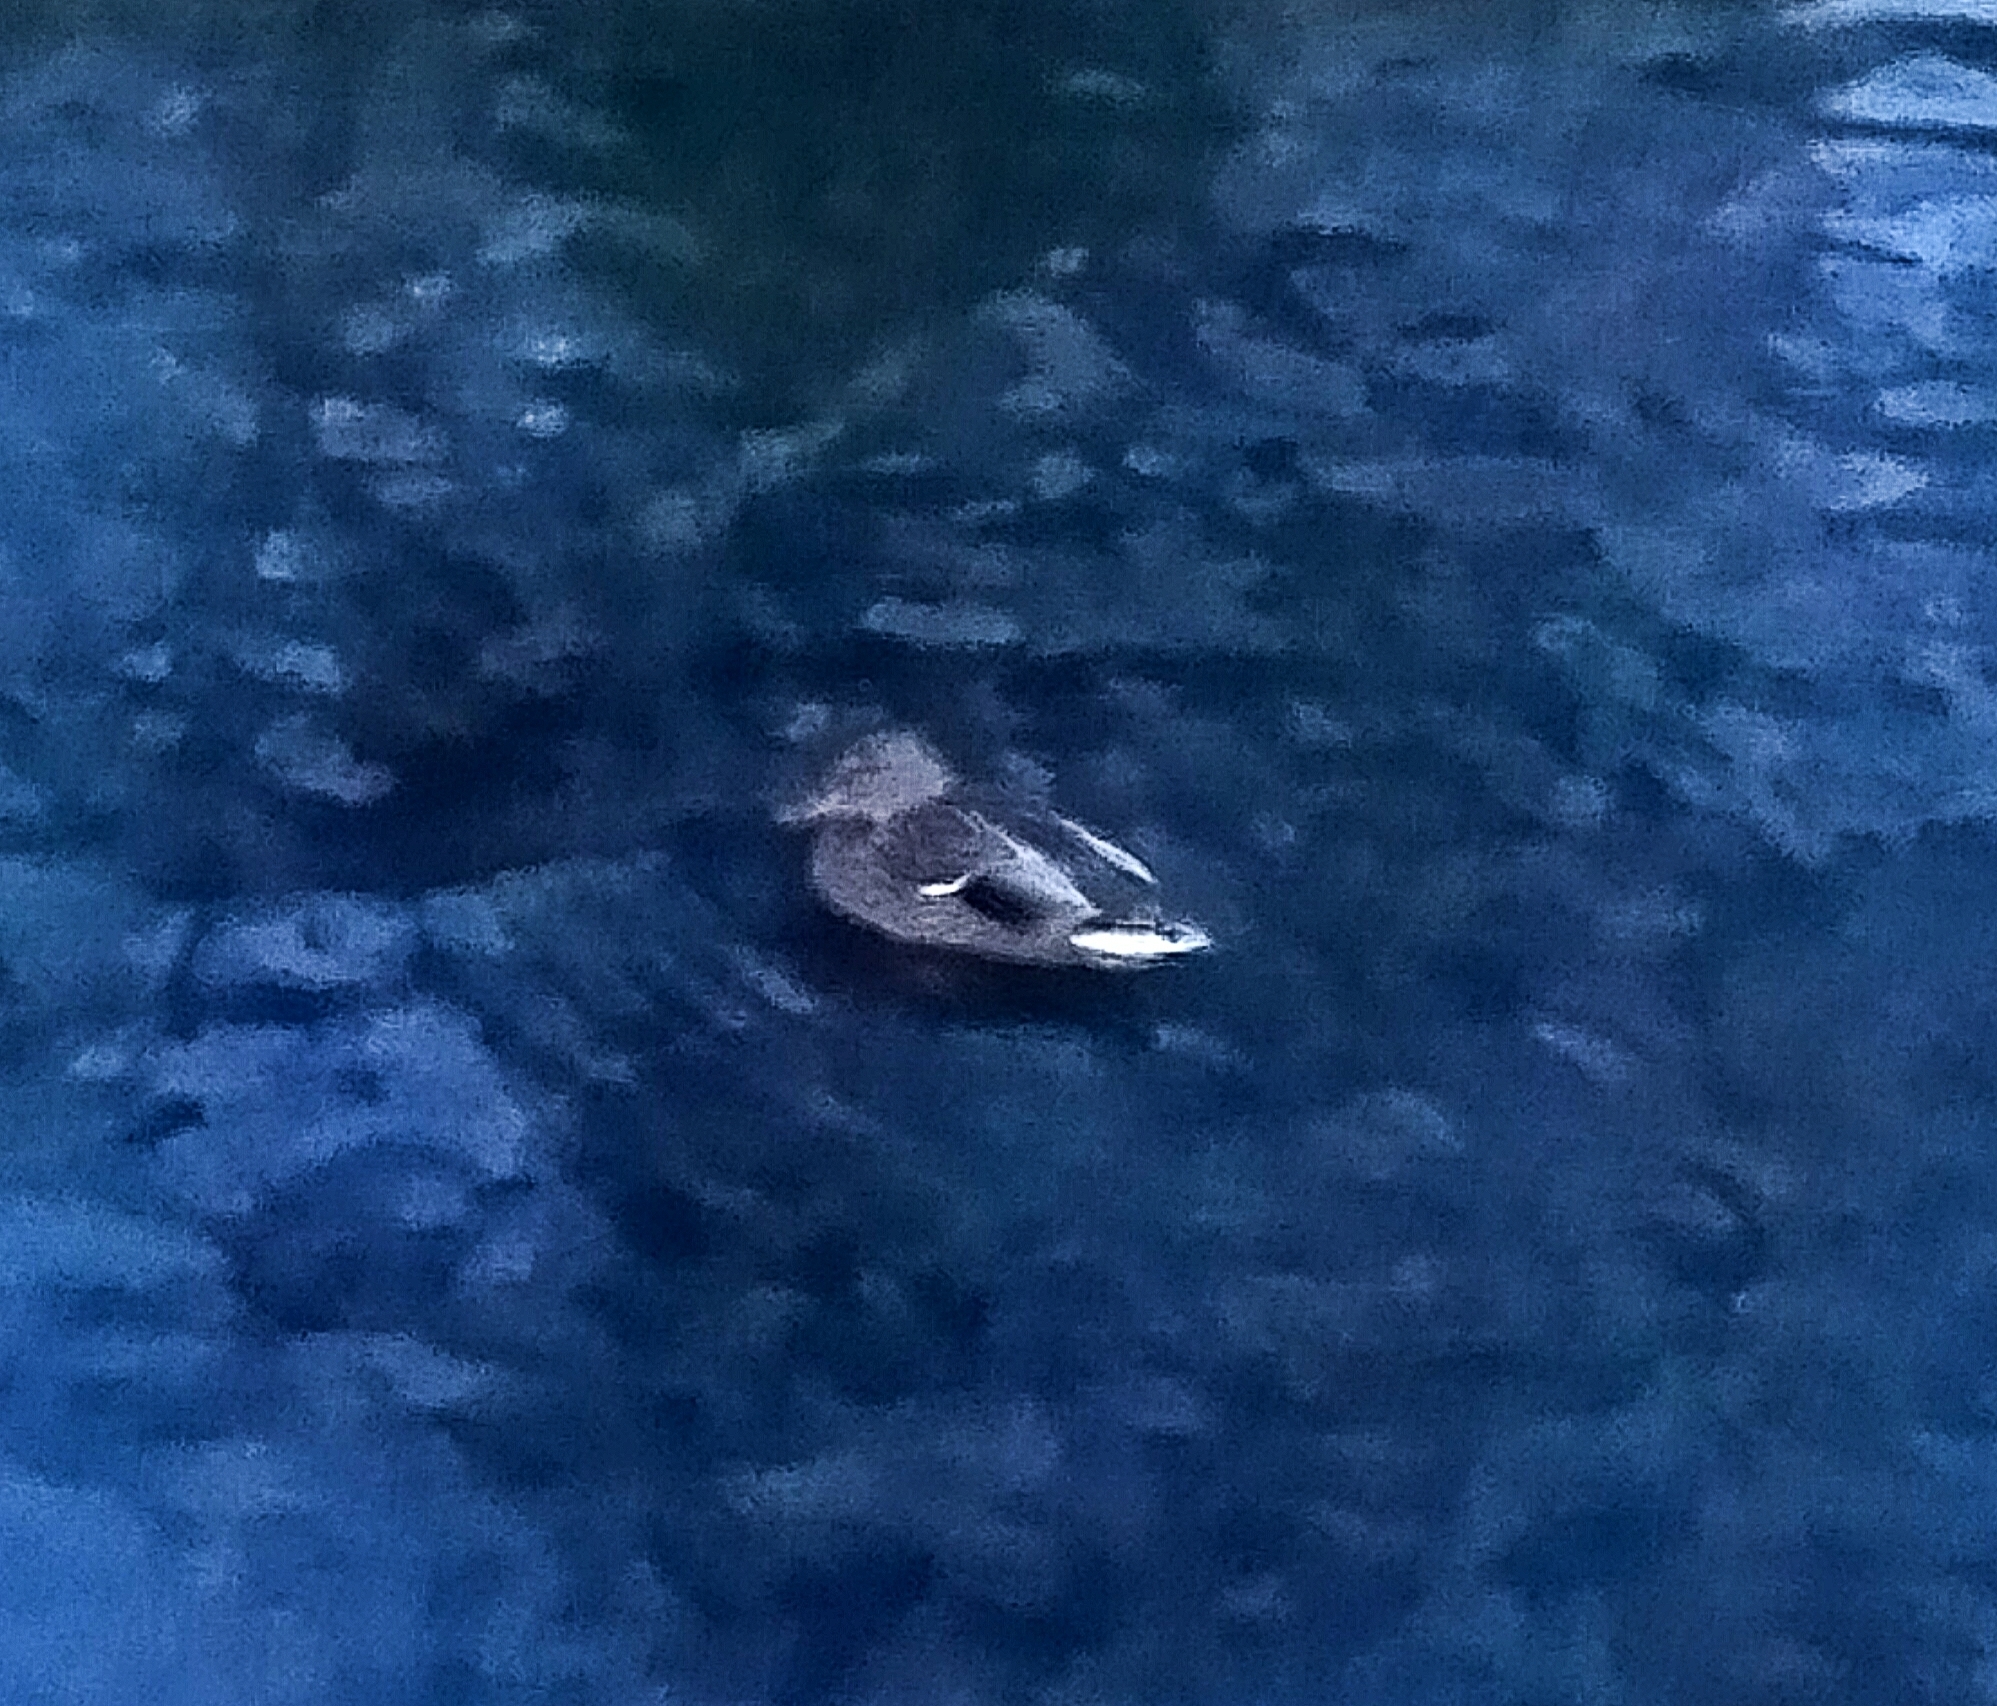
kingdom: Animalia
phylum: Chordata
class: Aves
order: Anseriformes
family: Anatidae
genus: Anas
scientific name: Anas platyrhynchos
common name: Mallard
